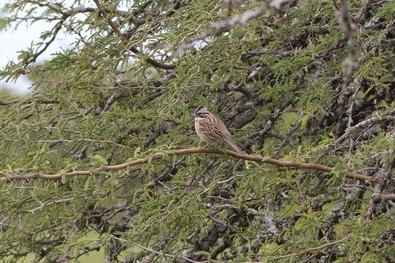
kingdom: Animalia
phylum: Chordata
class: Aves
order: Passeriformes
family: Passerellidae
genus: Zonotrichia
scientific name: Zonotrichia capensis
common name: Rufous-collared sparrow
